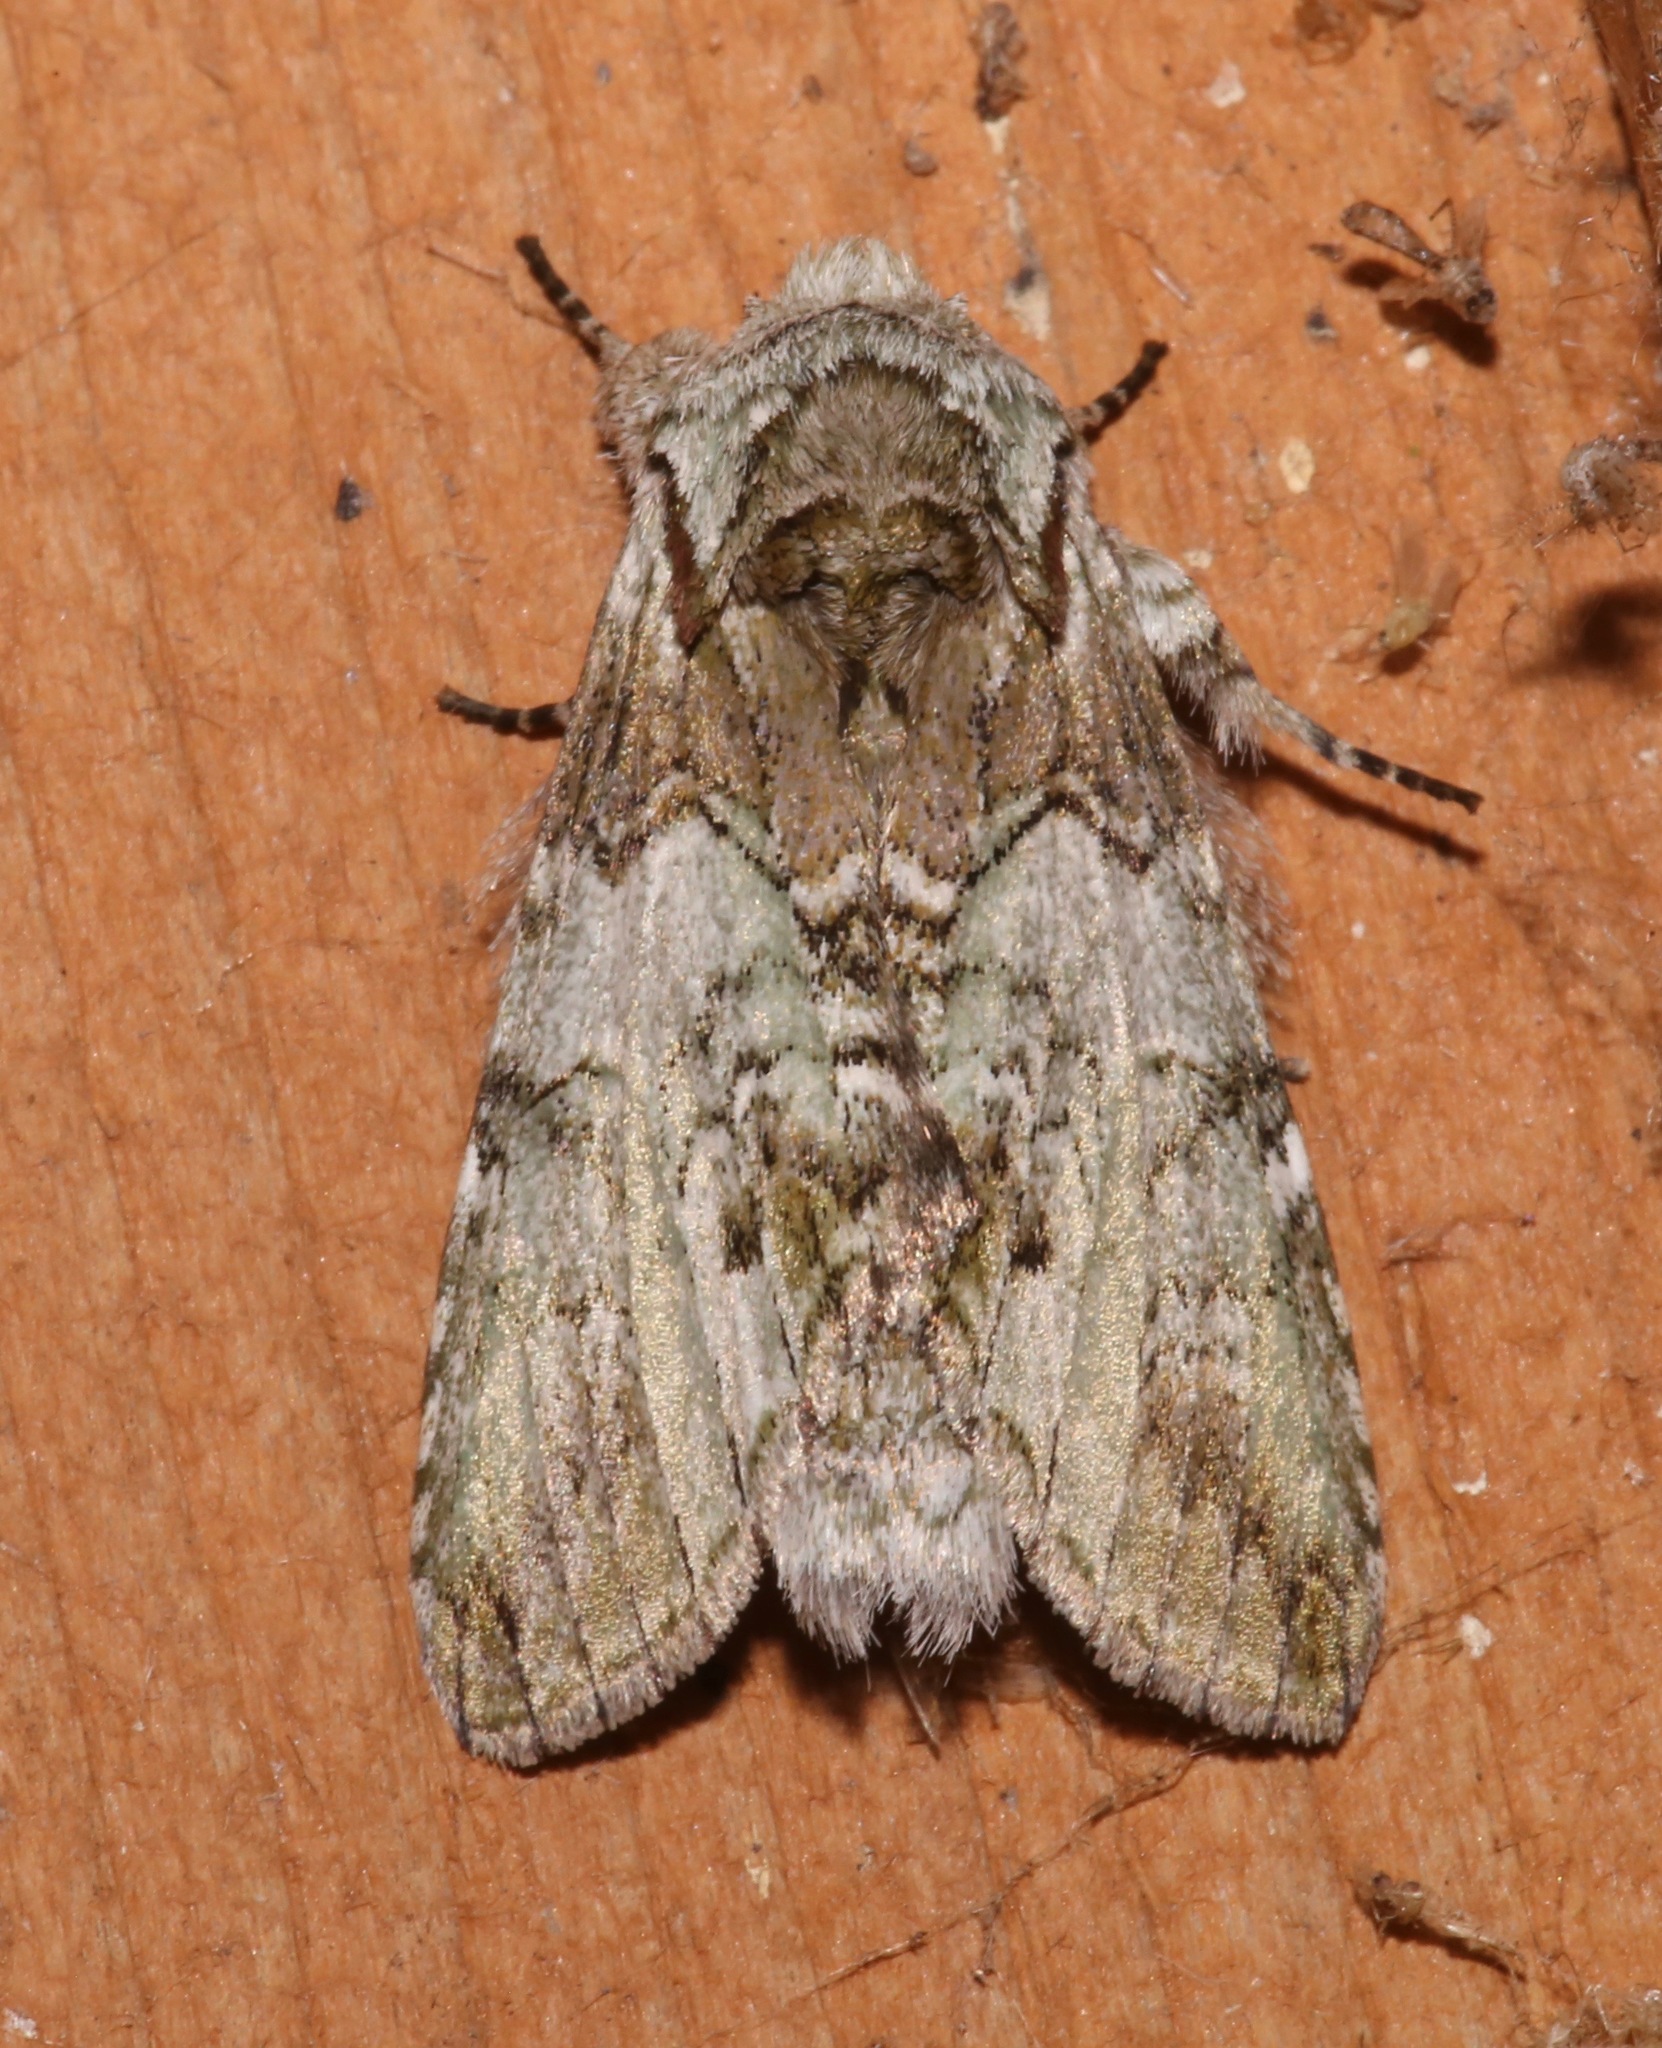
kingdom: Animalia
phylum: Arthropoda
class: Insecta
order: Lepidoptera
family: Notodontidae
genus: Macrurocampa
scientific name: Macrurocampa marthesia
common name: Mottled prominent
